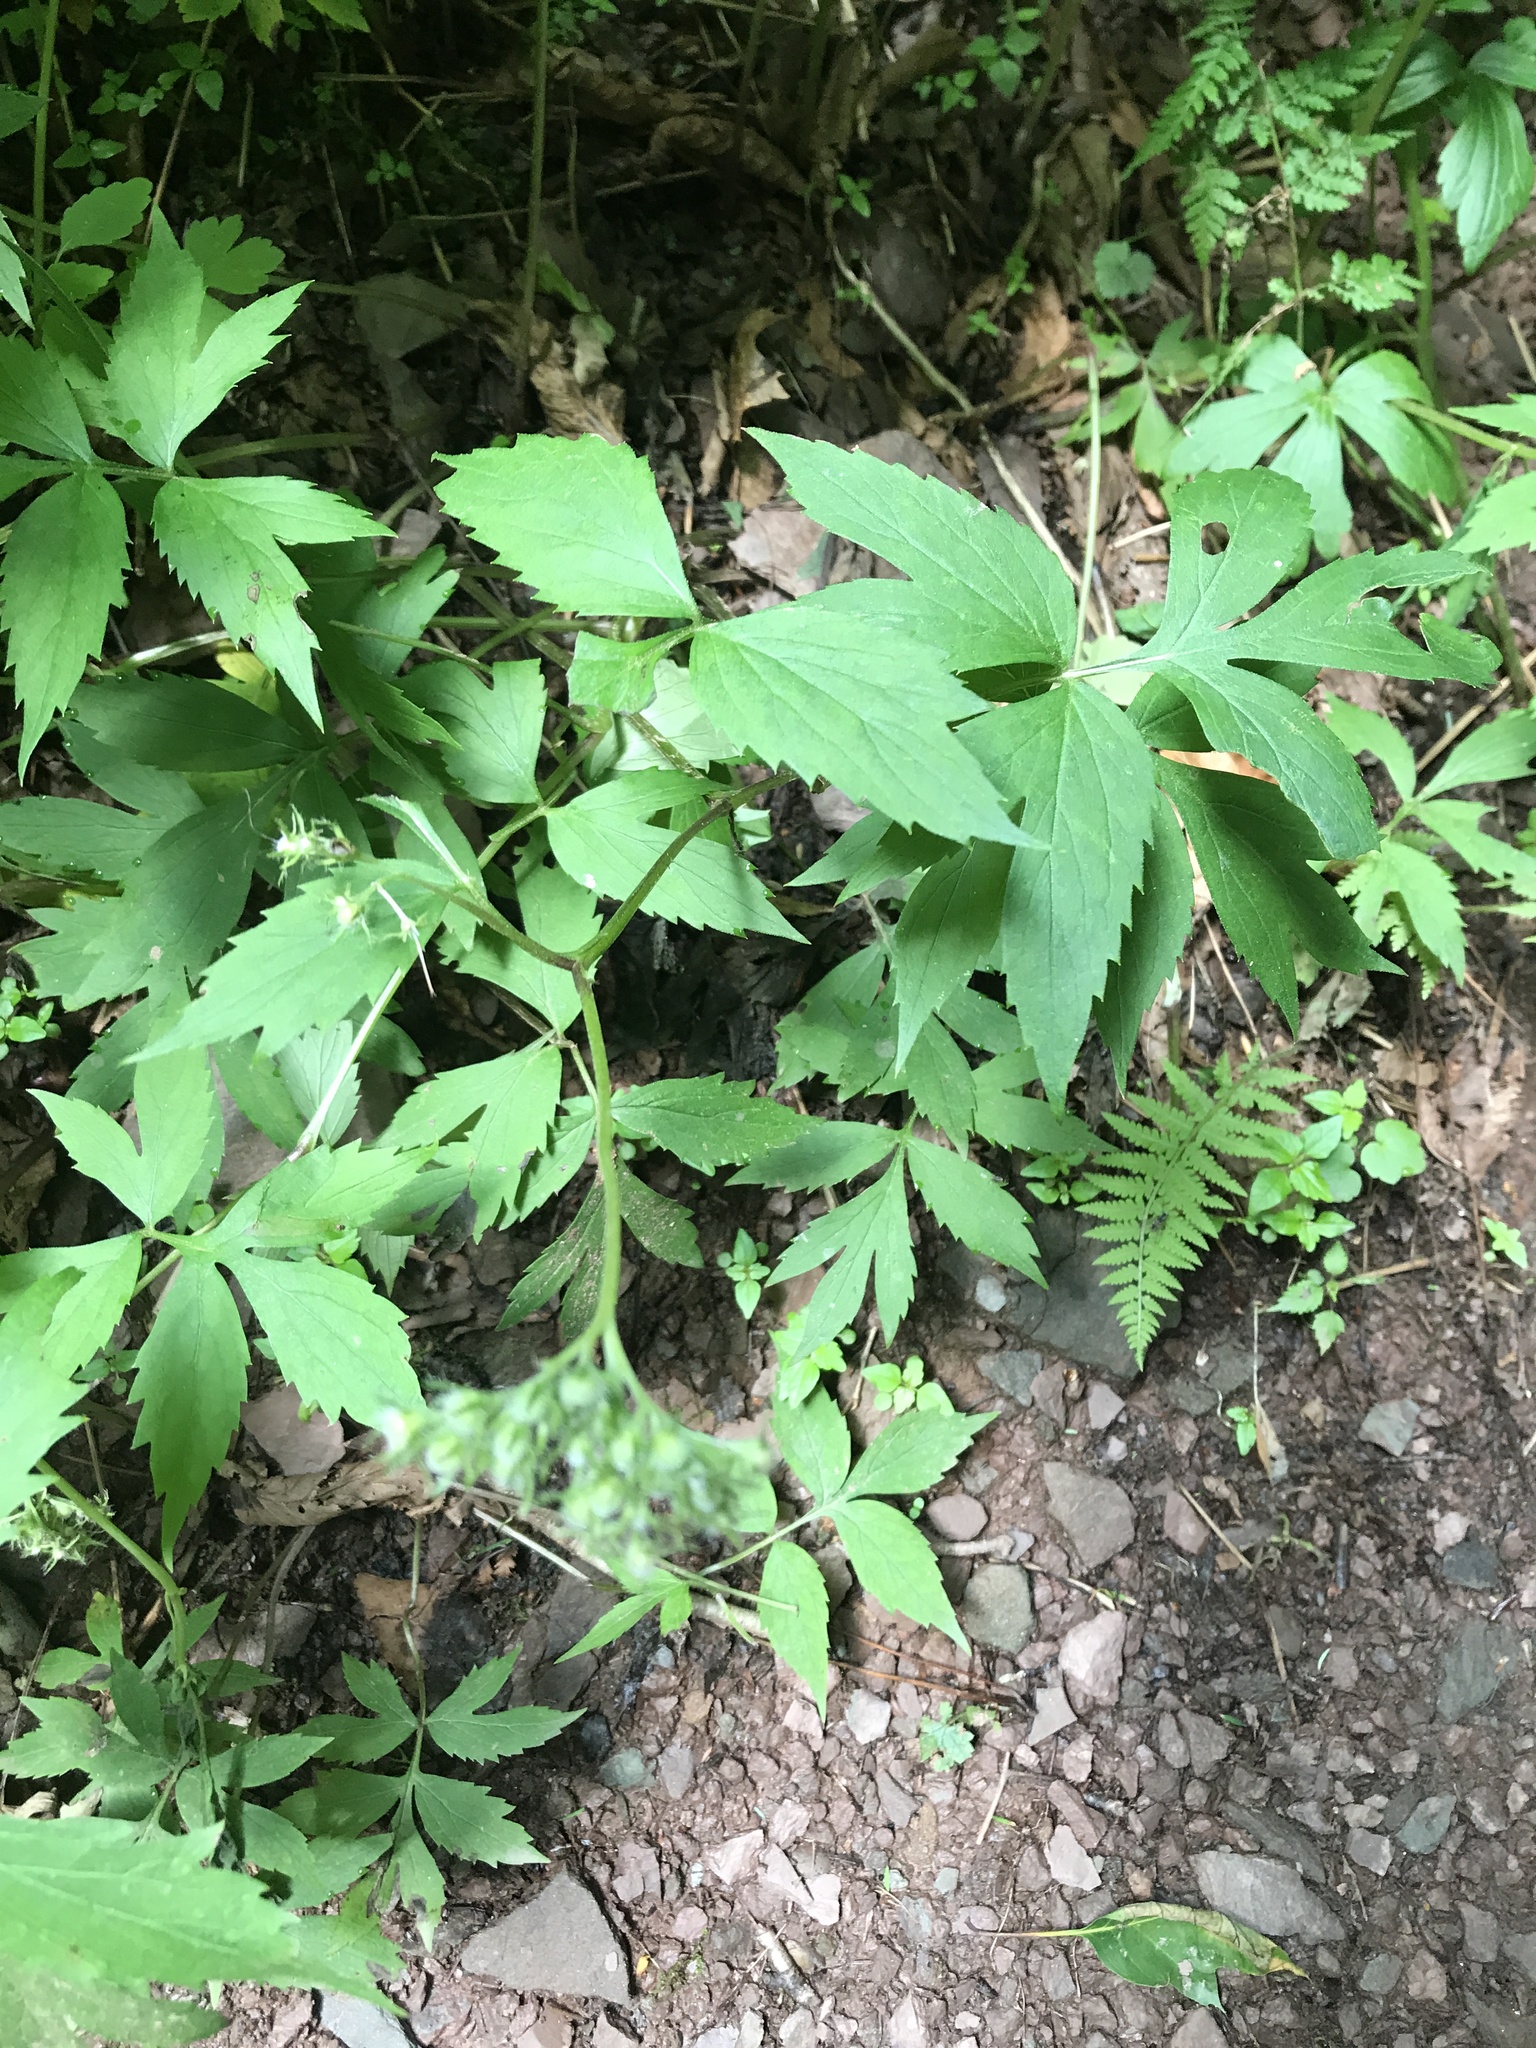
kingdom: Plantae
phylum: Tracheophyta
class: Magnoliopsida
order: Boraginales
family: Hydrophyllaceae
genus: Hydrophyllum
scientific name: Hydrophyllum virginianum
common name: Virginia waterleaf
